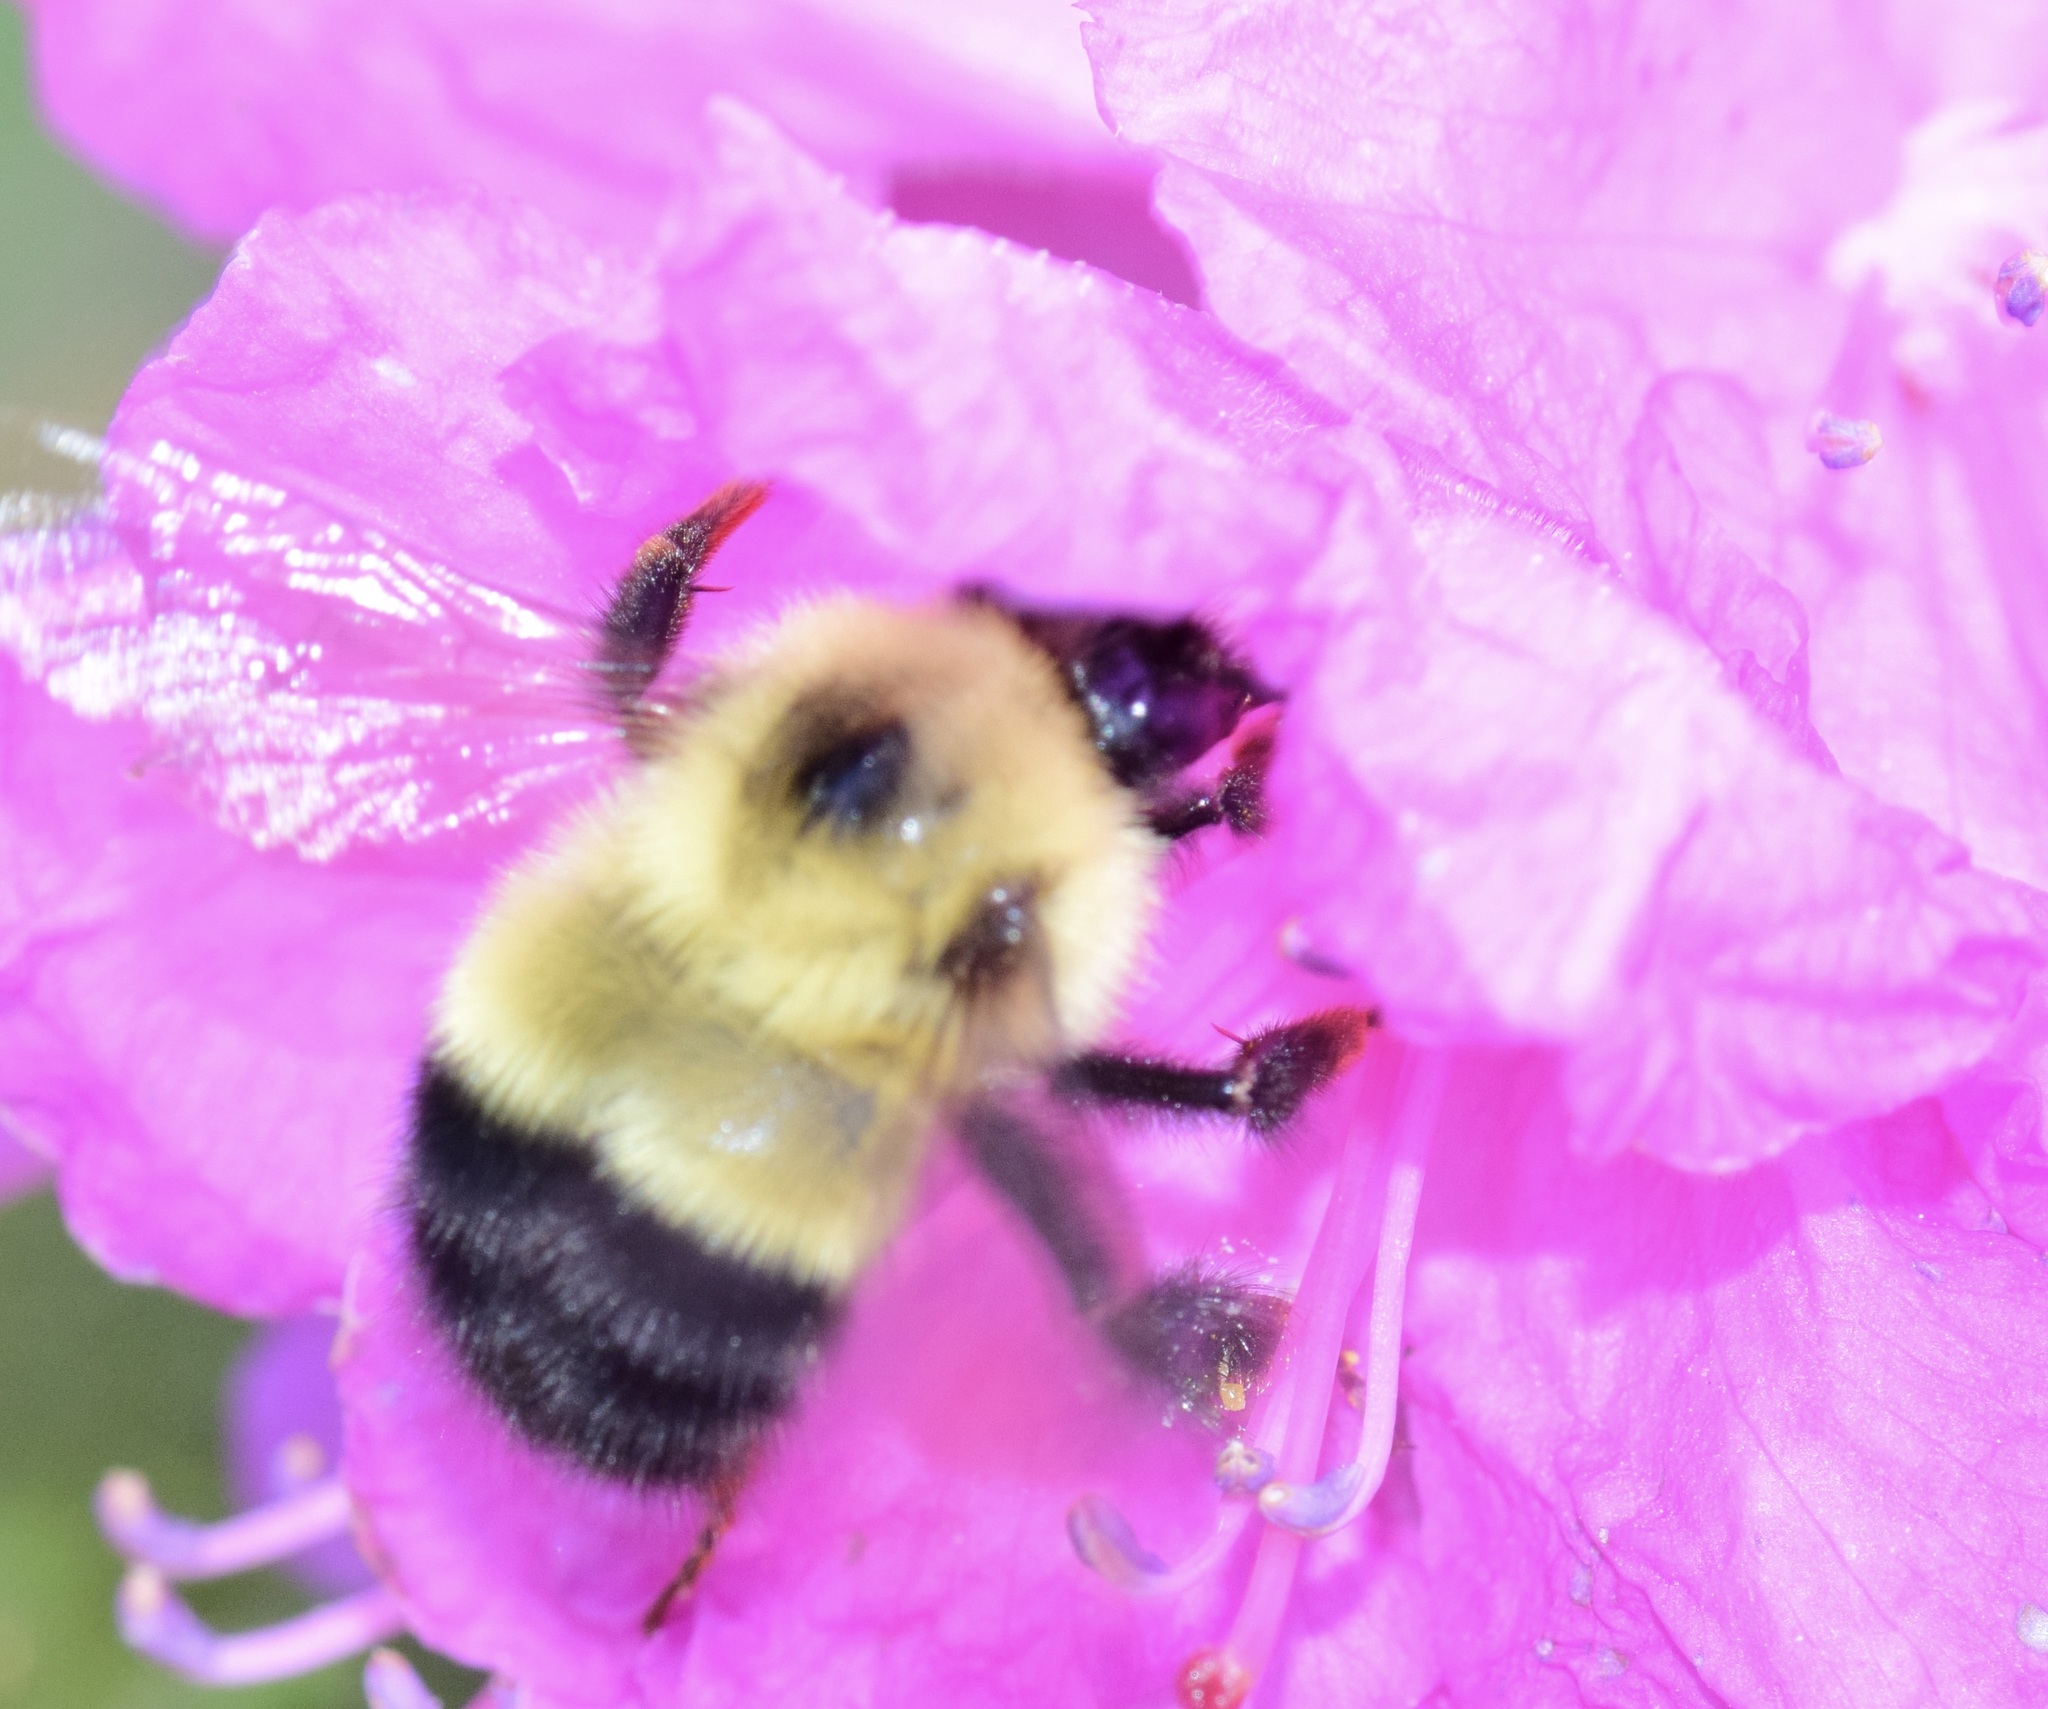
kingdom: Animalia
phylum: Arthropoda
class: Insecta
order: Hymenoptera
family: Apidae
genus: Pyrobombus
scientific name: Pyrobombus
